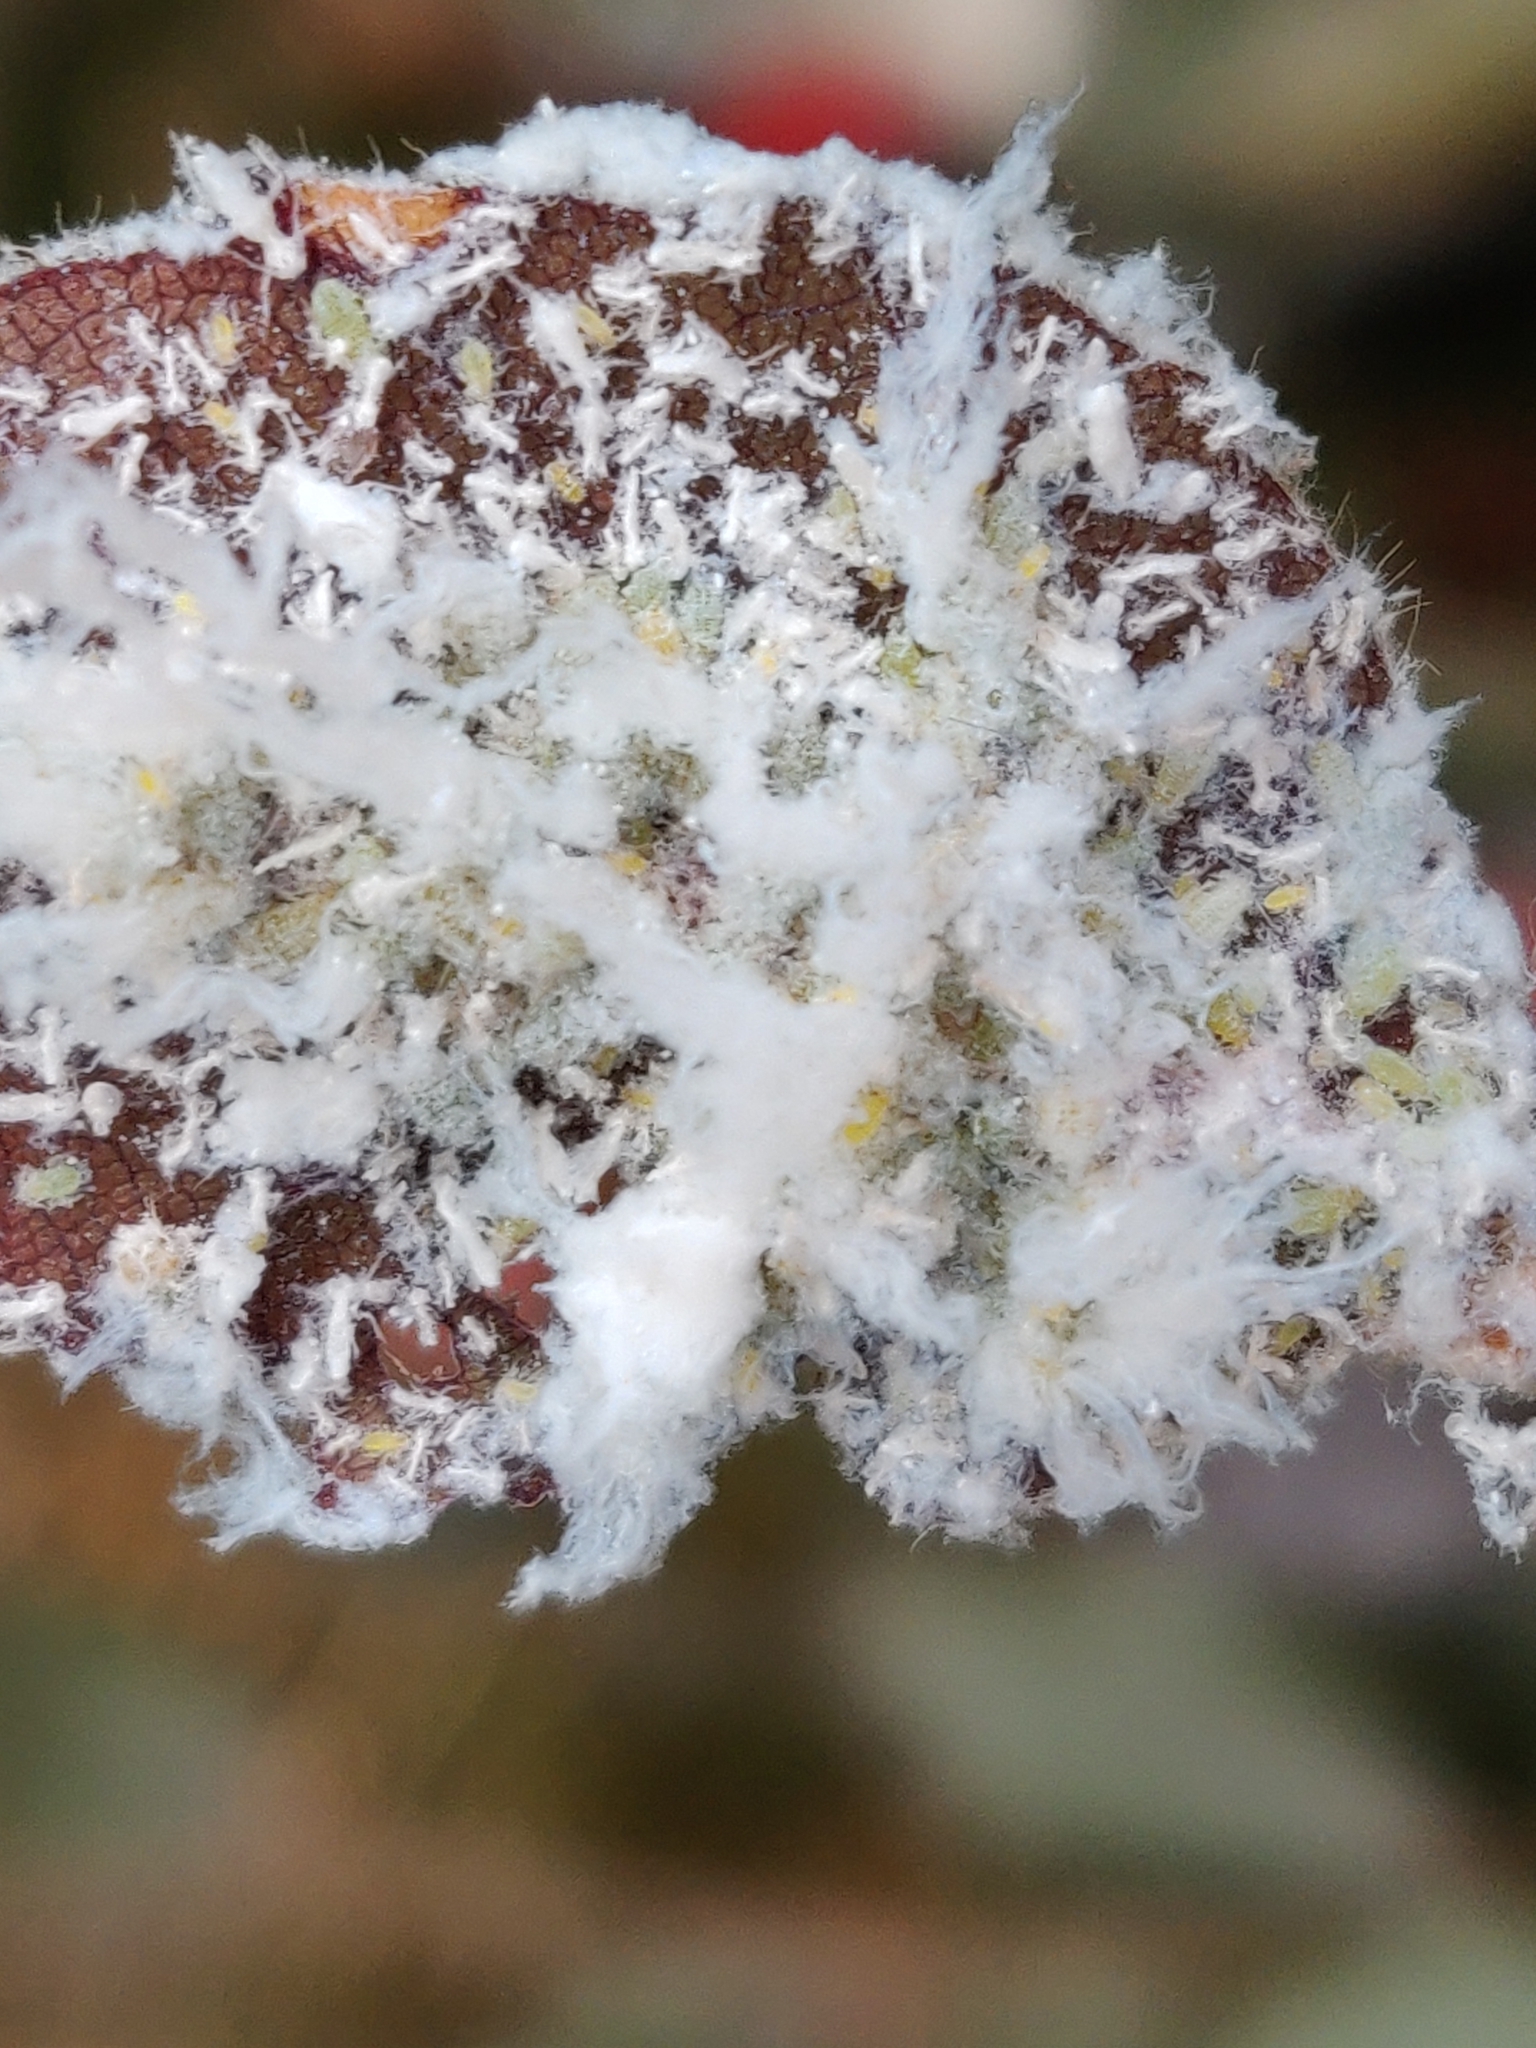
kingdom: Animalia
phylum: Arthropoda
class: Insecta
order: Hemiptera
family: Aphididae
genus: Phyllaphis
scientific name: Phyllaphis fagi
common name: Beech aphid
